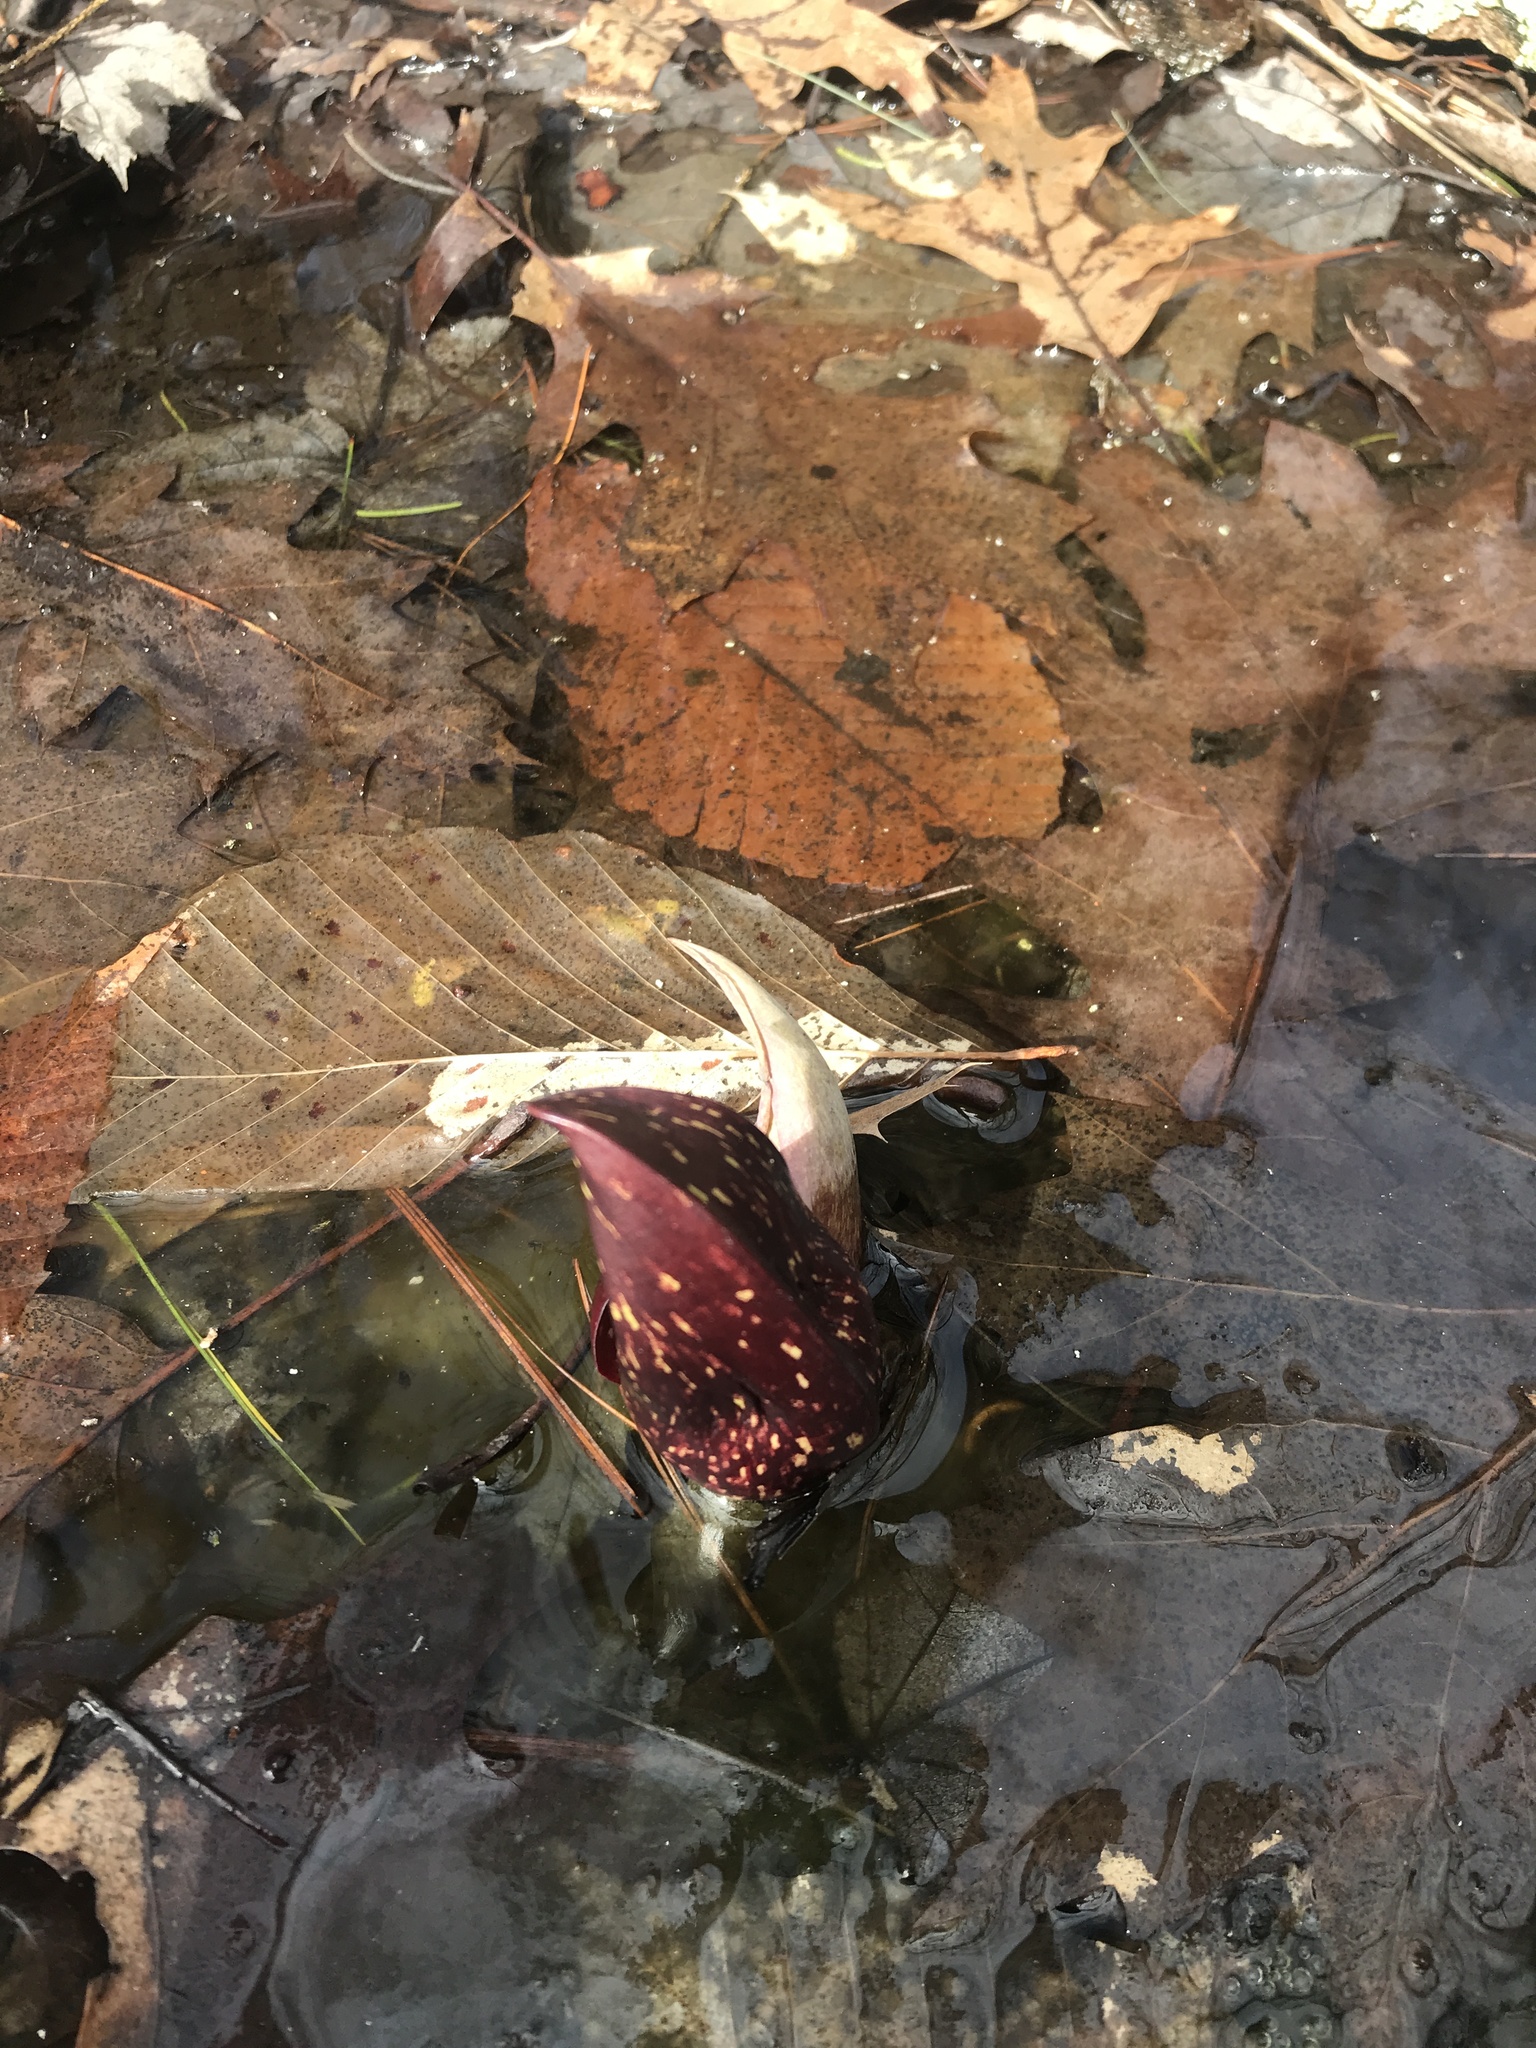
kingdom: Plantae
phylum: Tracheophyta
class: Liliopsida
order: Alismatales
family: Araceae
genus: Symplocarpus
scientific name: Symplocarpus foetidus
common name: Eastern skunk cabbage
